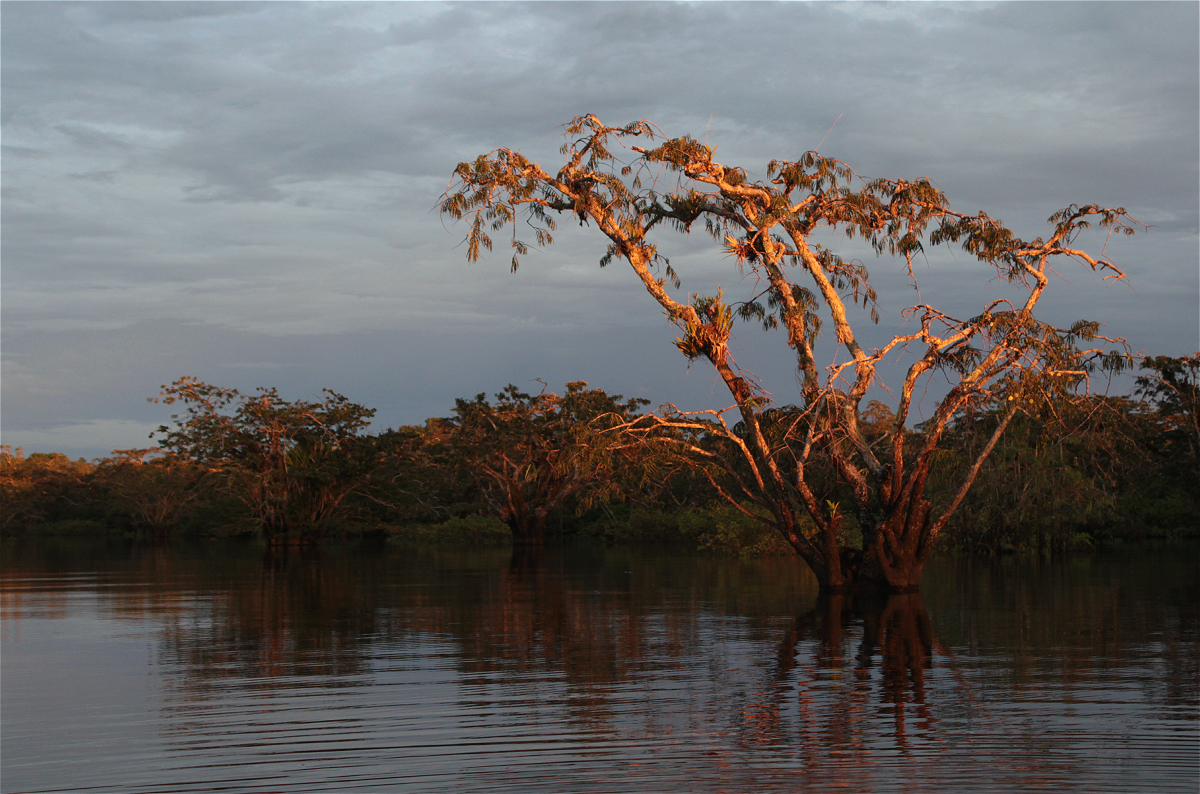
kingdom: Plantae
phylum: Tracheophyta
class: Magnoliopsida
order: Fabales
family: Fabaceae
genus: Macrolobium
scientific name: Macrolobium acaciifolium
